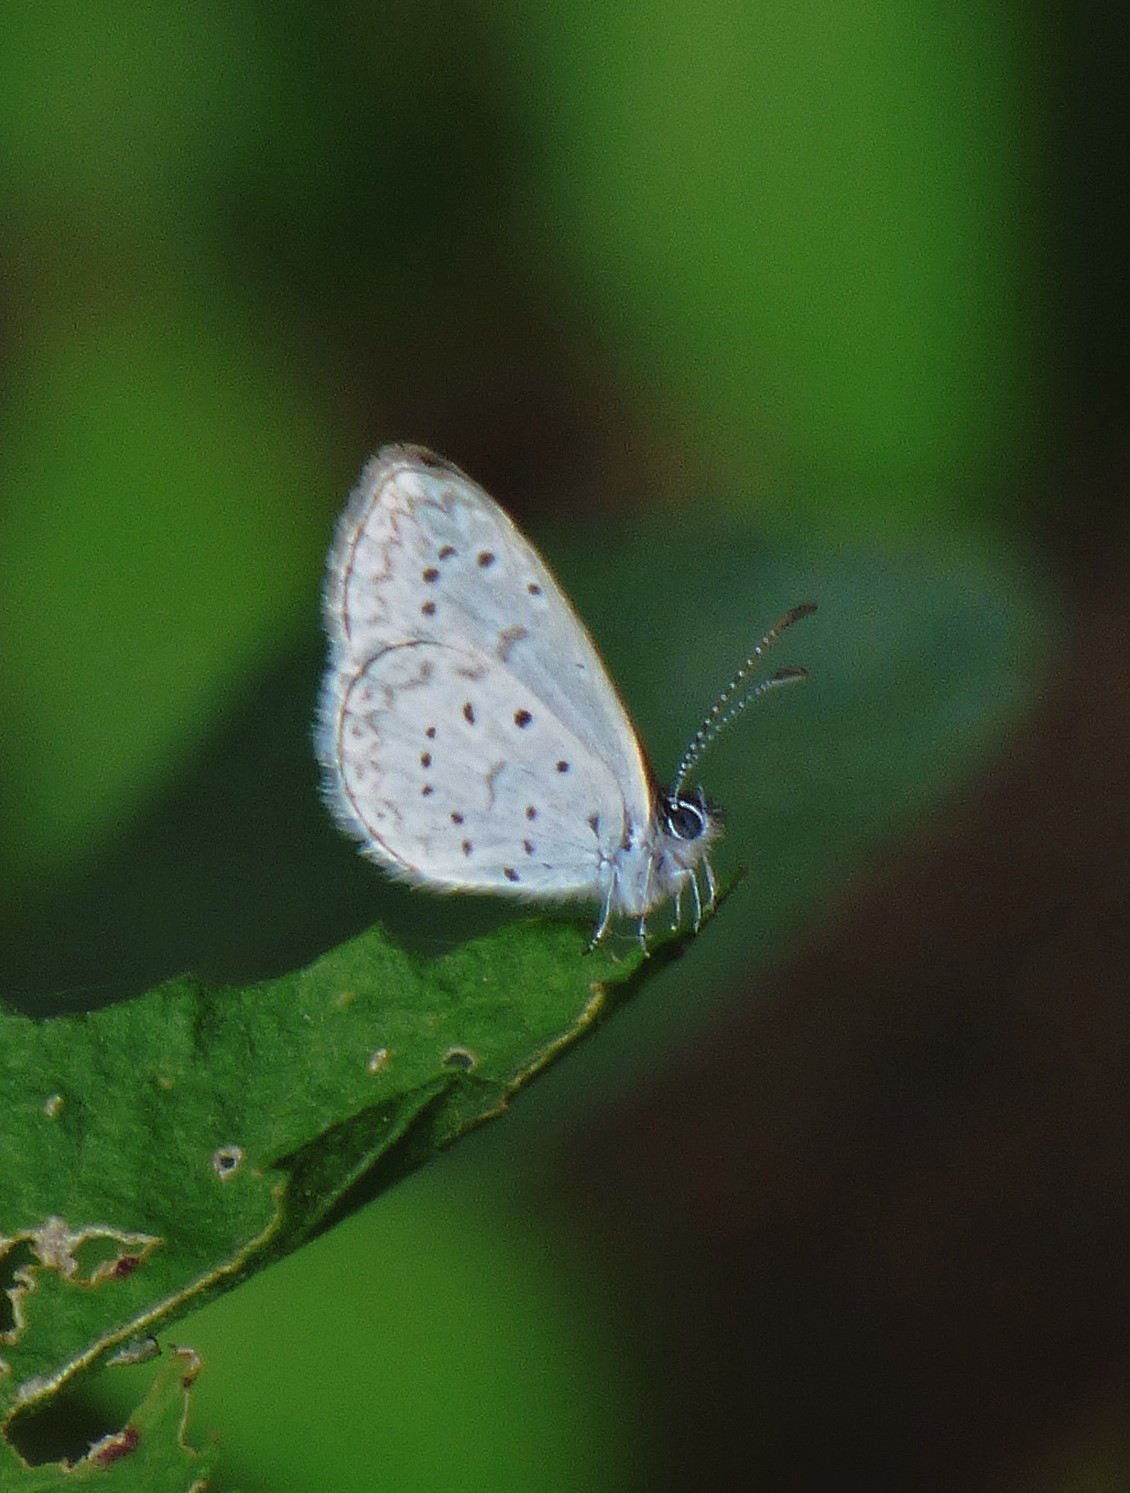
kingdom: Animalia
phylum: Arthropoda
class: Insecta
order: Lepidoptera
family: Lycaenidae
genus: Lycaena
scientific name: Lycaena cyna
